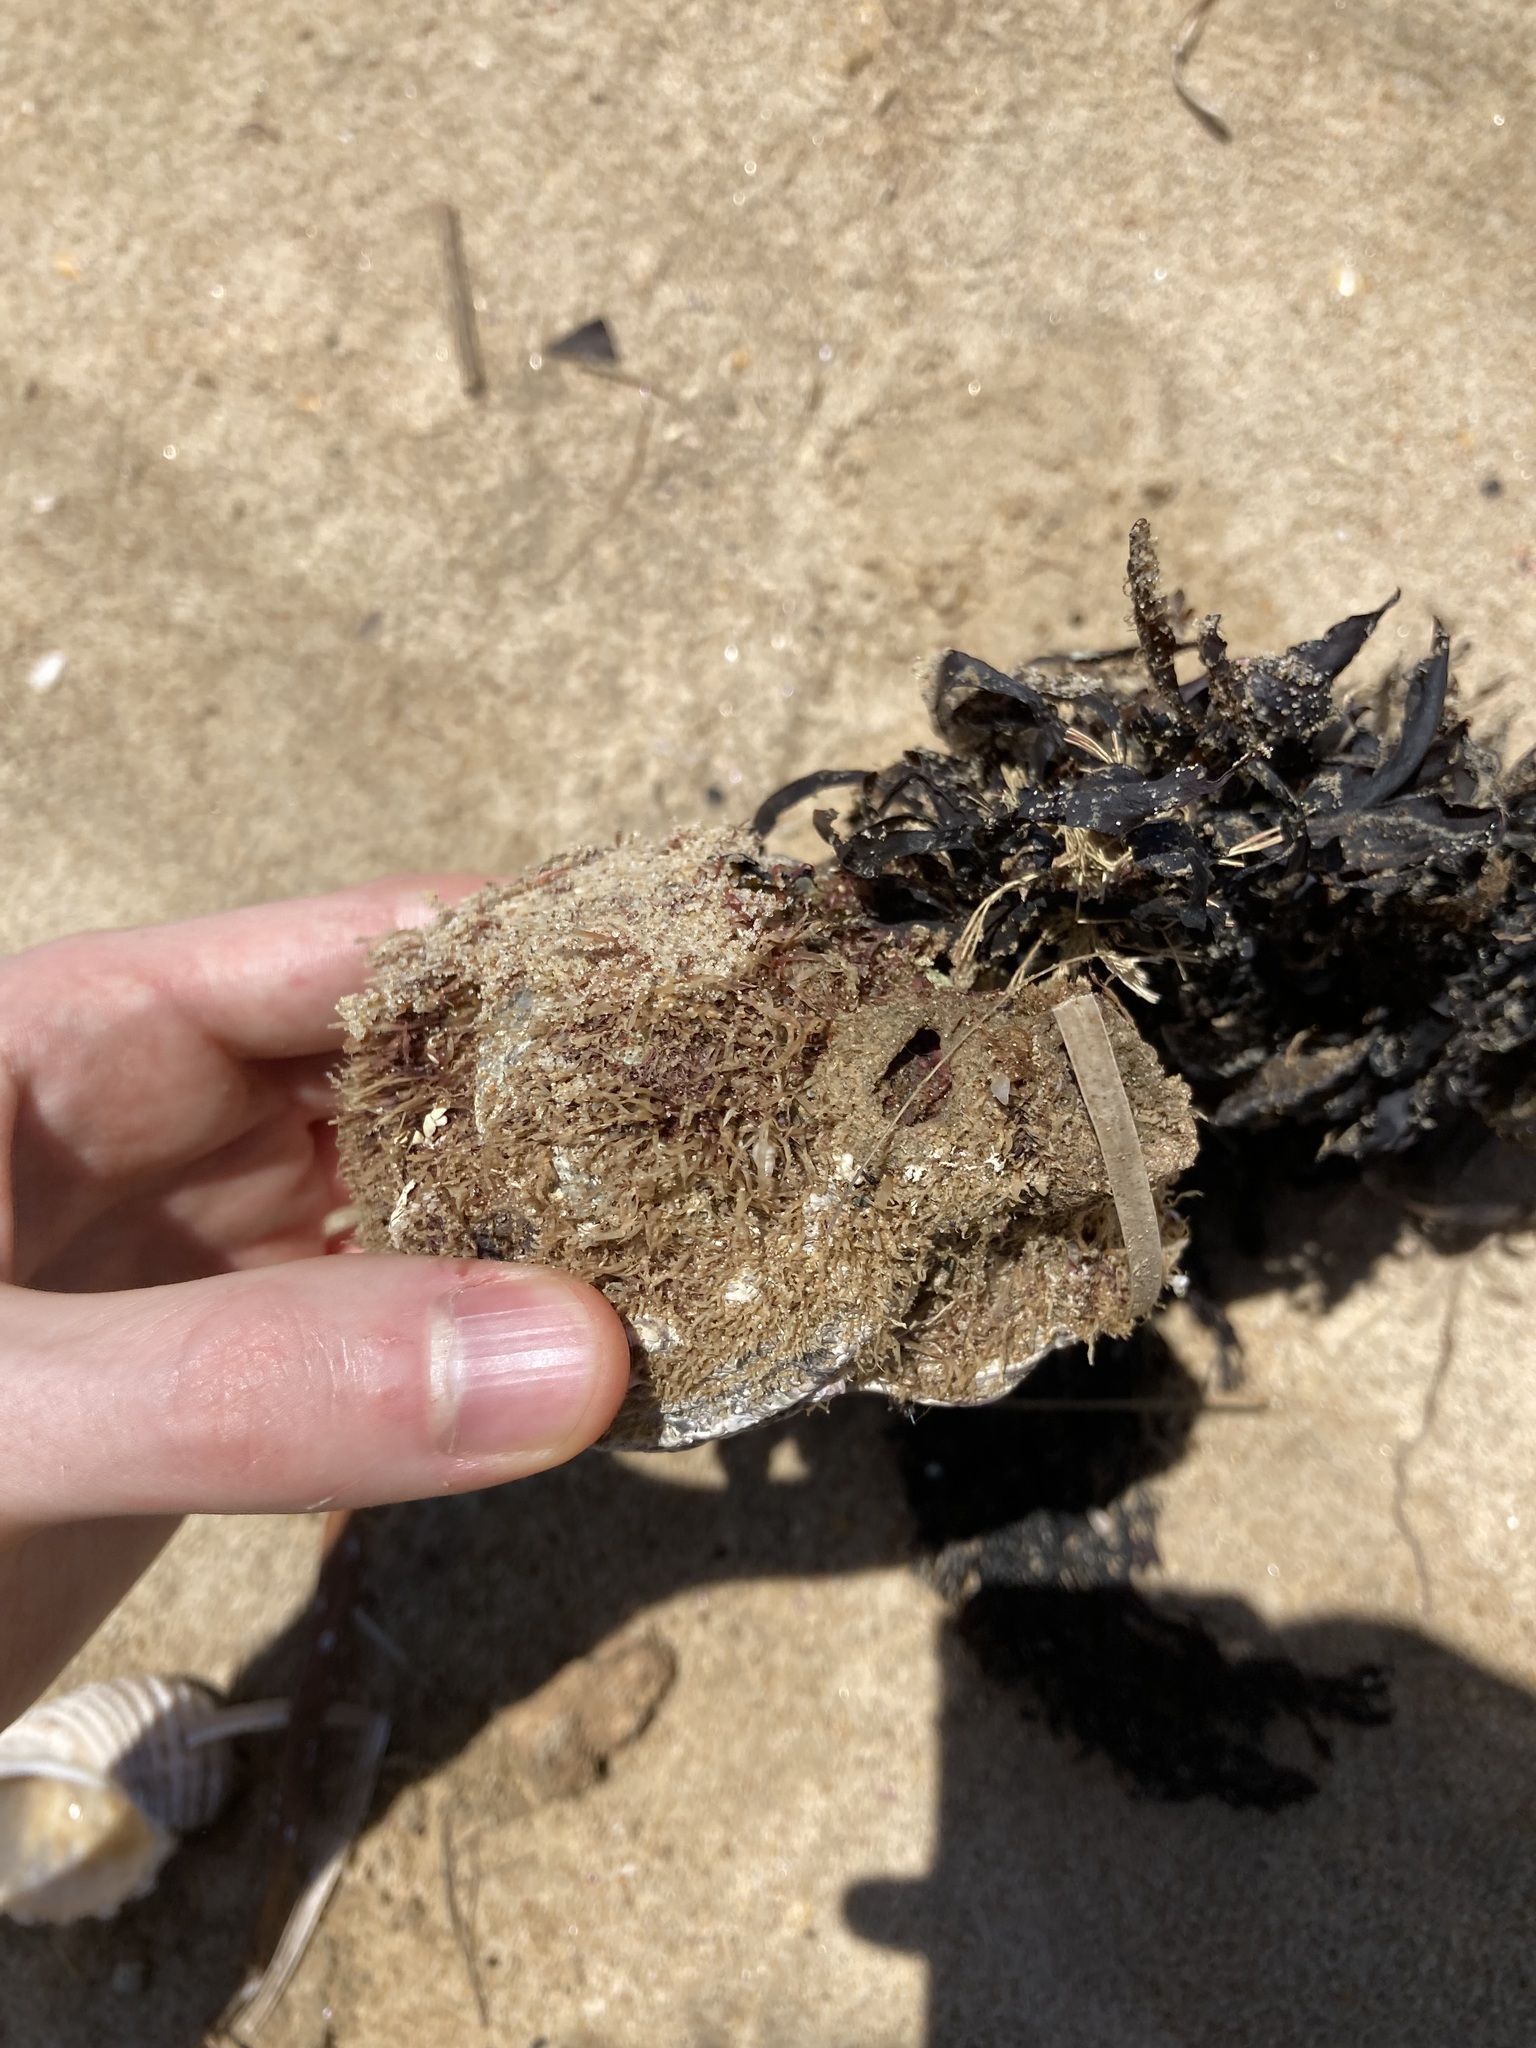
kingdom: Animalia
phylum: Mollusca
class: Gastropoda
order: Trochida
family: Turbinidae
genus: Lunella
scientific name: Lunella torquata
